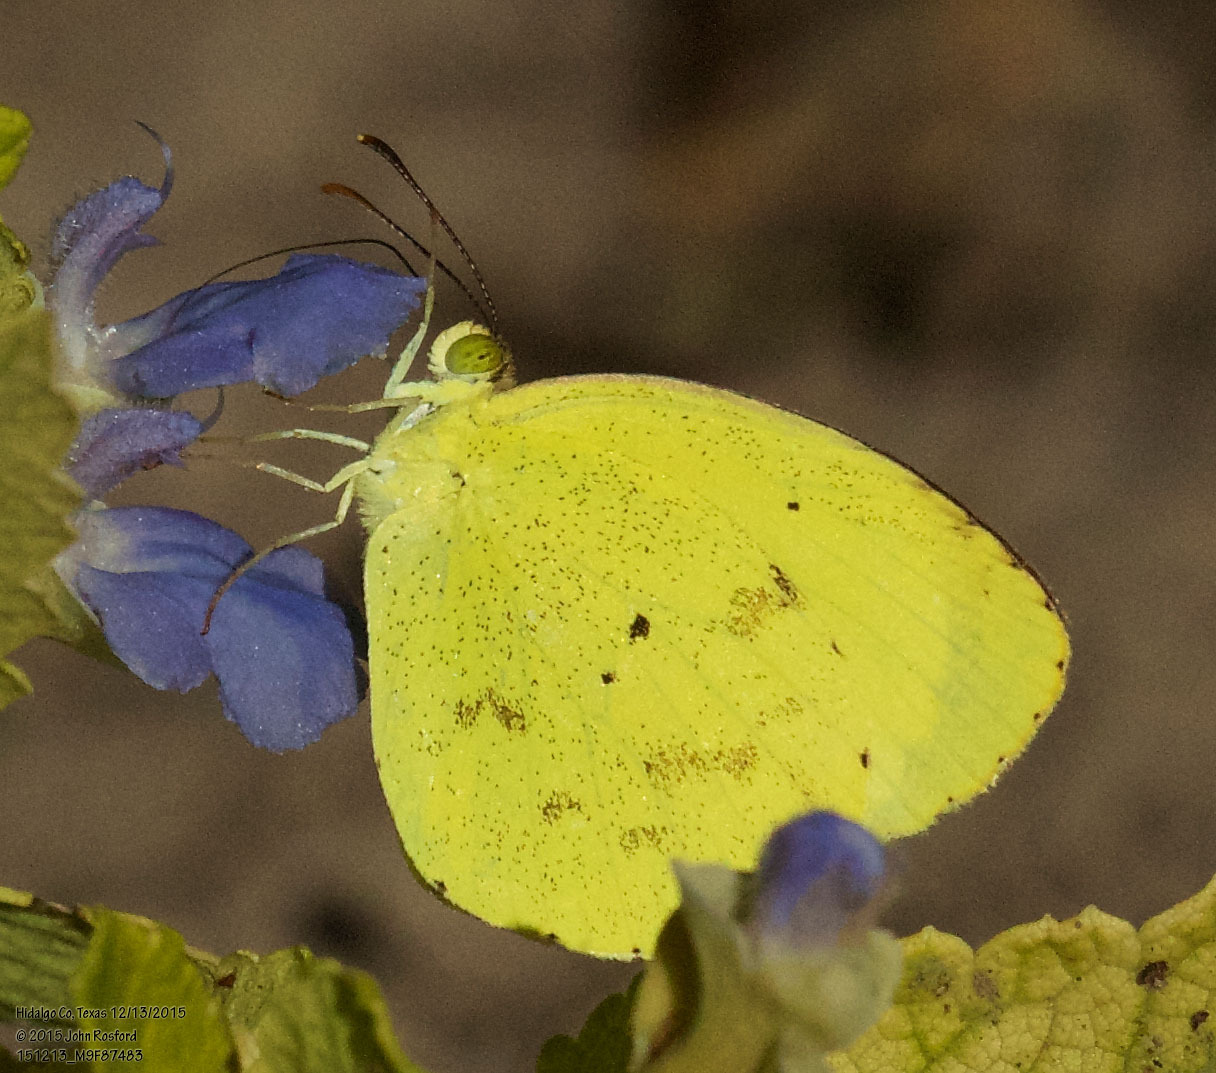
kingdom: Animalia
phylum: Arthropoda
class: Insecta
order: Lepidoptera
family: Pieridae
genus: Pyrisitia
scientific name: Pyrisitia nise
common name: Mimosa yellow
